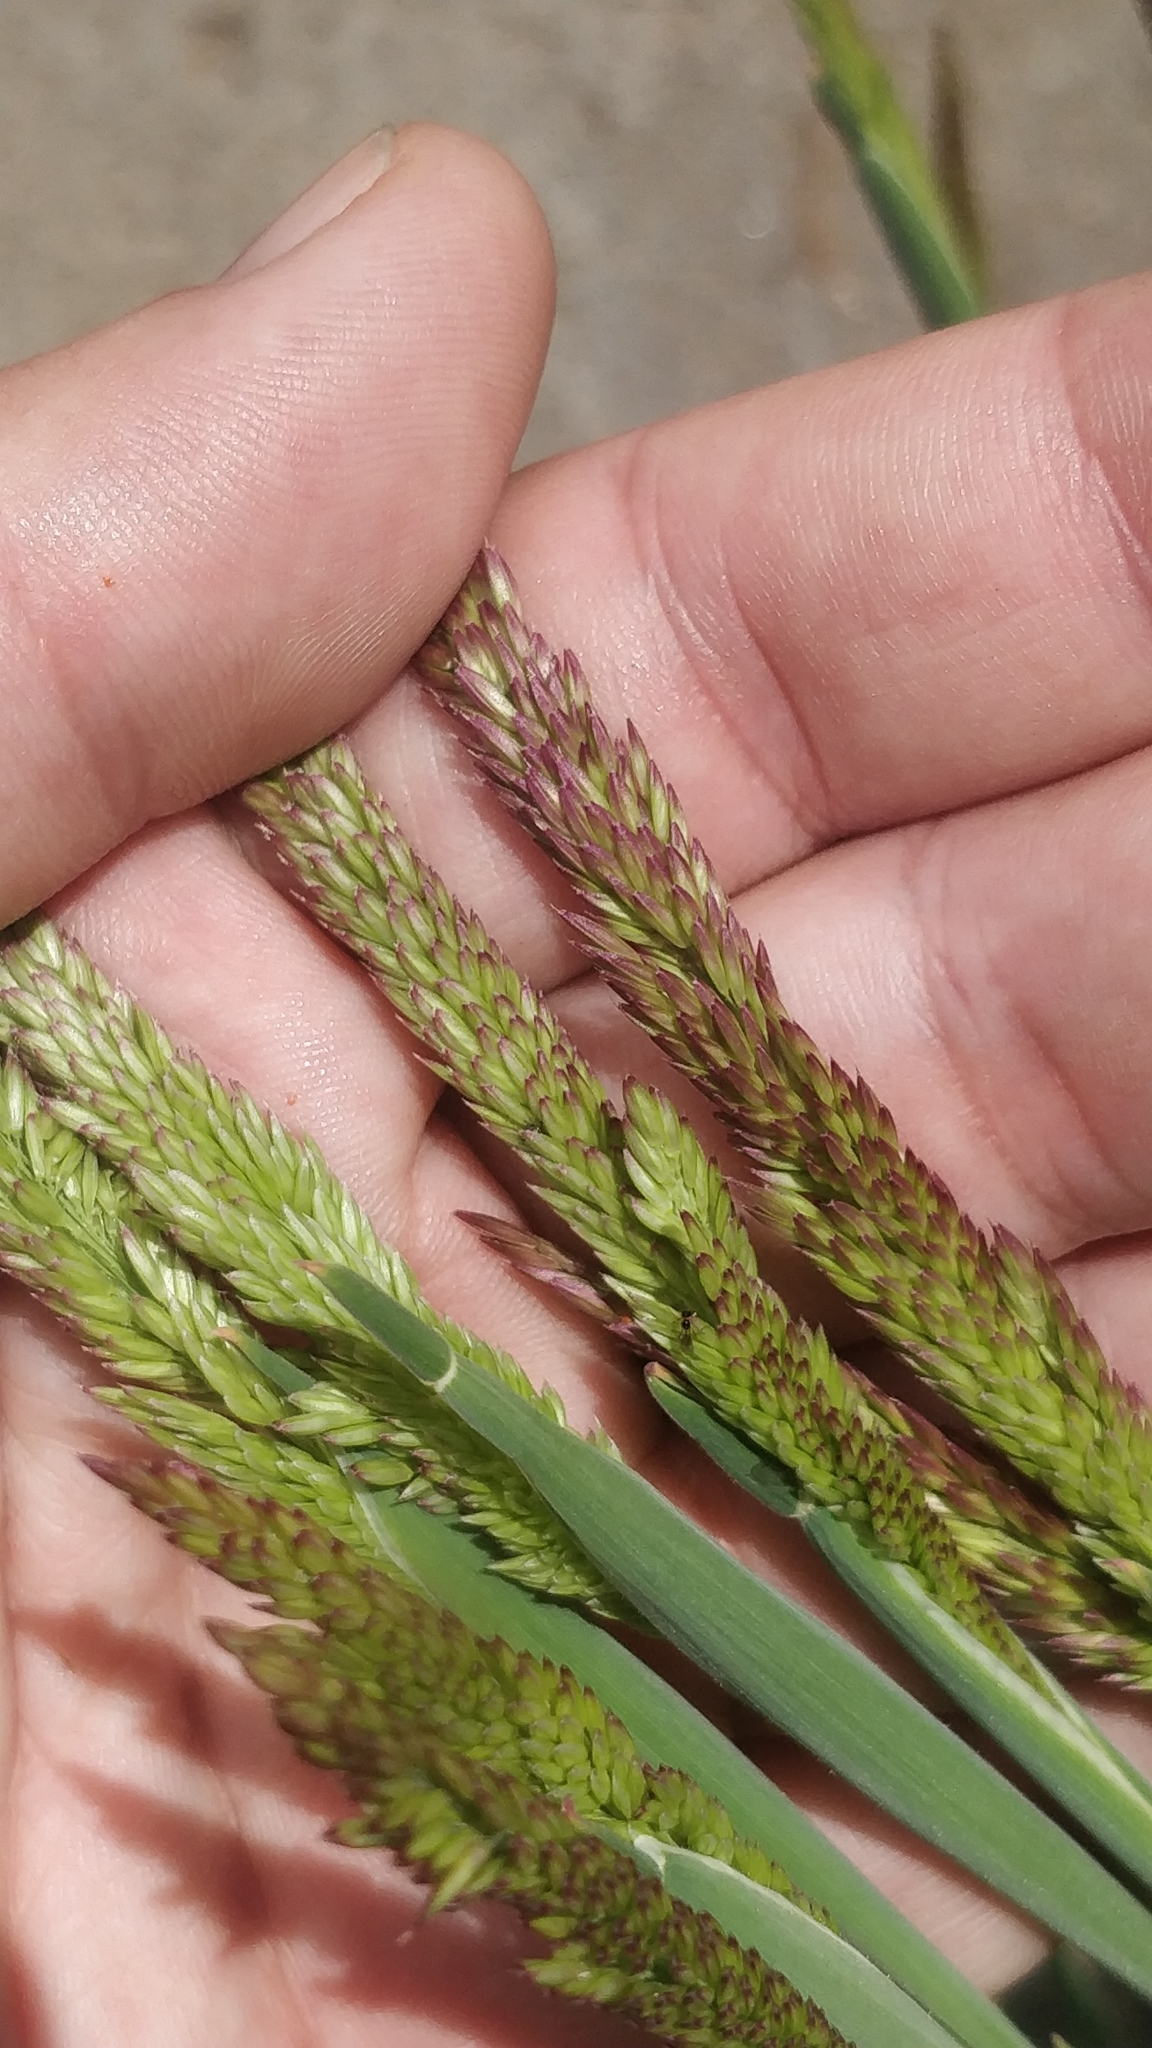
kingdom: Plantae
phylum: Tracheophyta
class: Liliopsida
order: Poales
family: Poaceae
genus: Holcus
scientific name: Holcus lanatus
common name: Yorkshire-fog
